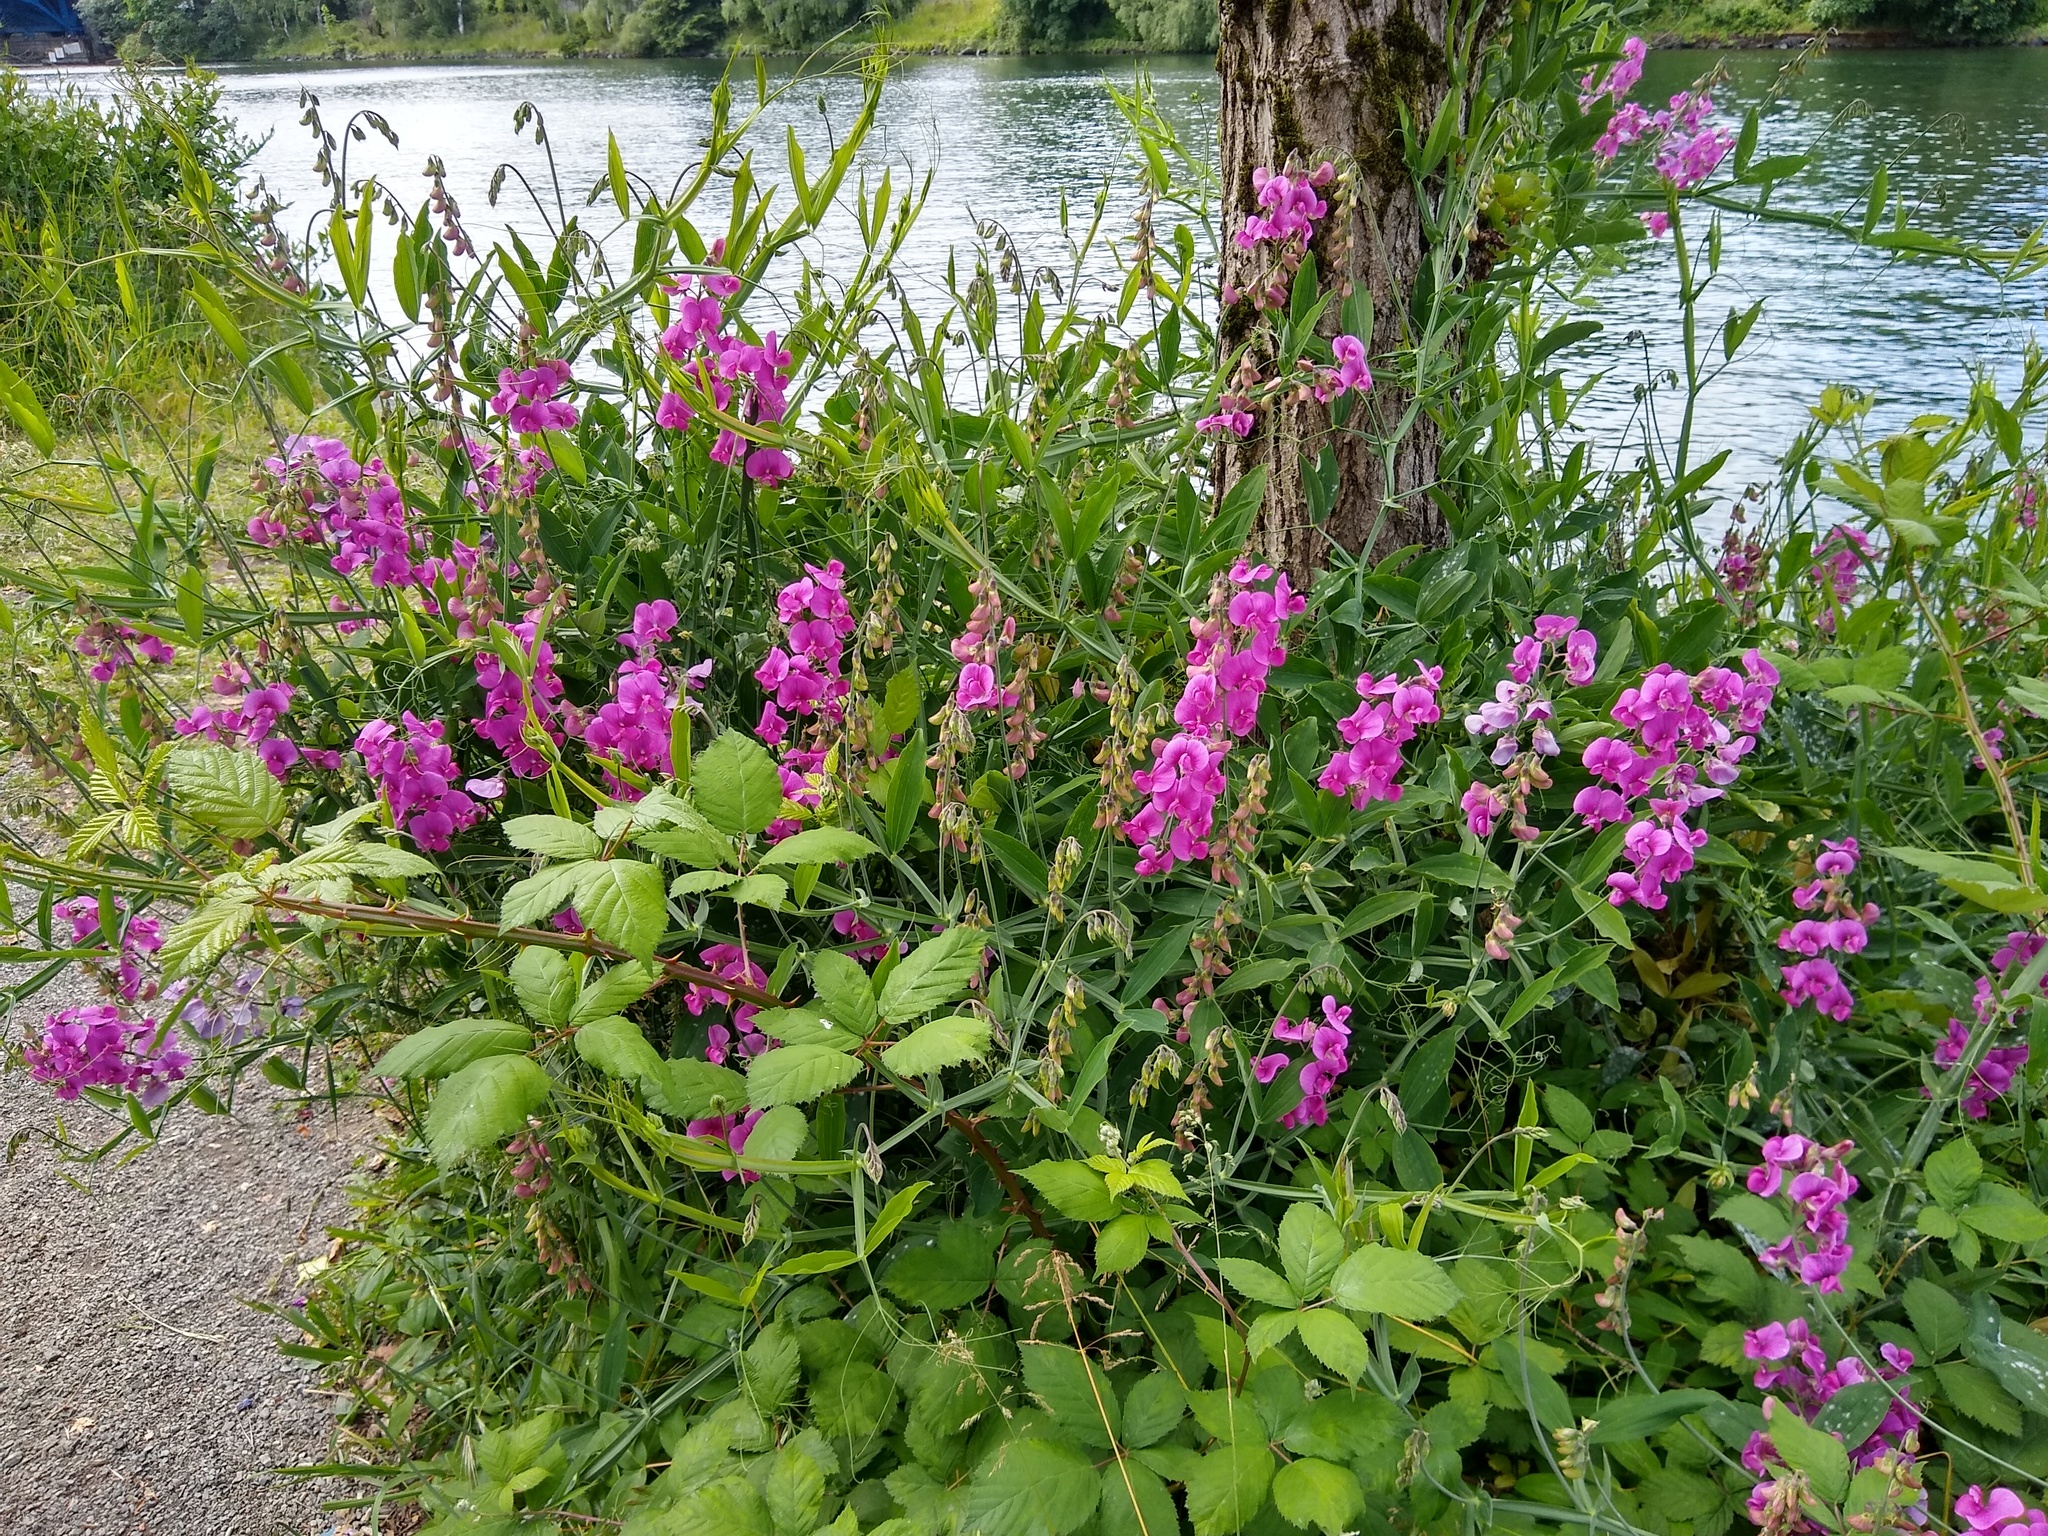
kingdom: Plantae
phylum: Tracheophyta
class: Magnoliopsida
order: Fabales
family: Fabaceae
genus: Lathyrus
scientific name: Lathyrus latifolius
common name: Perennial pea
